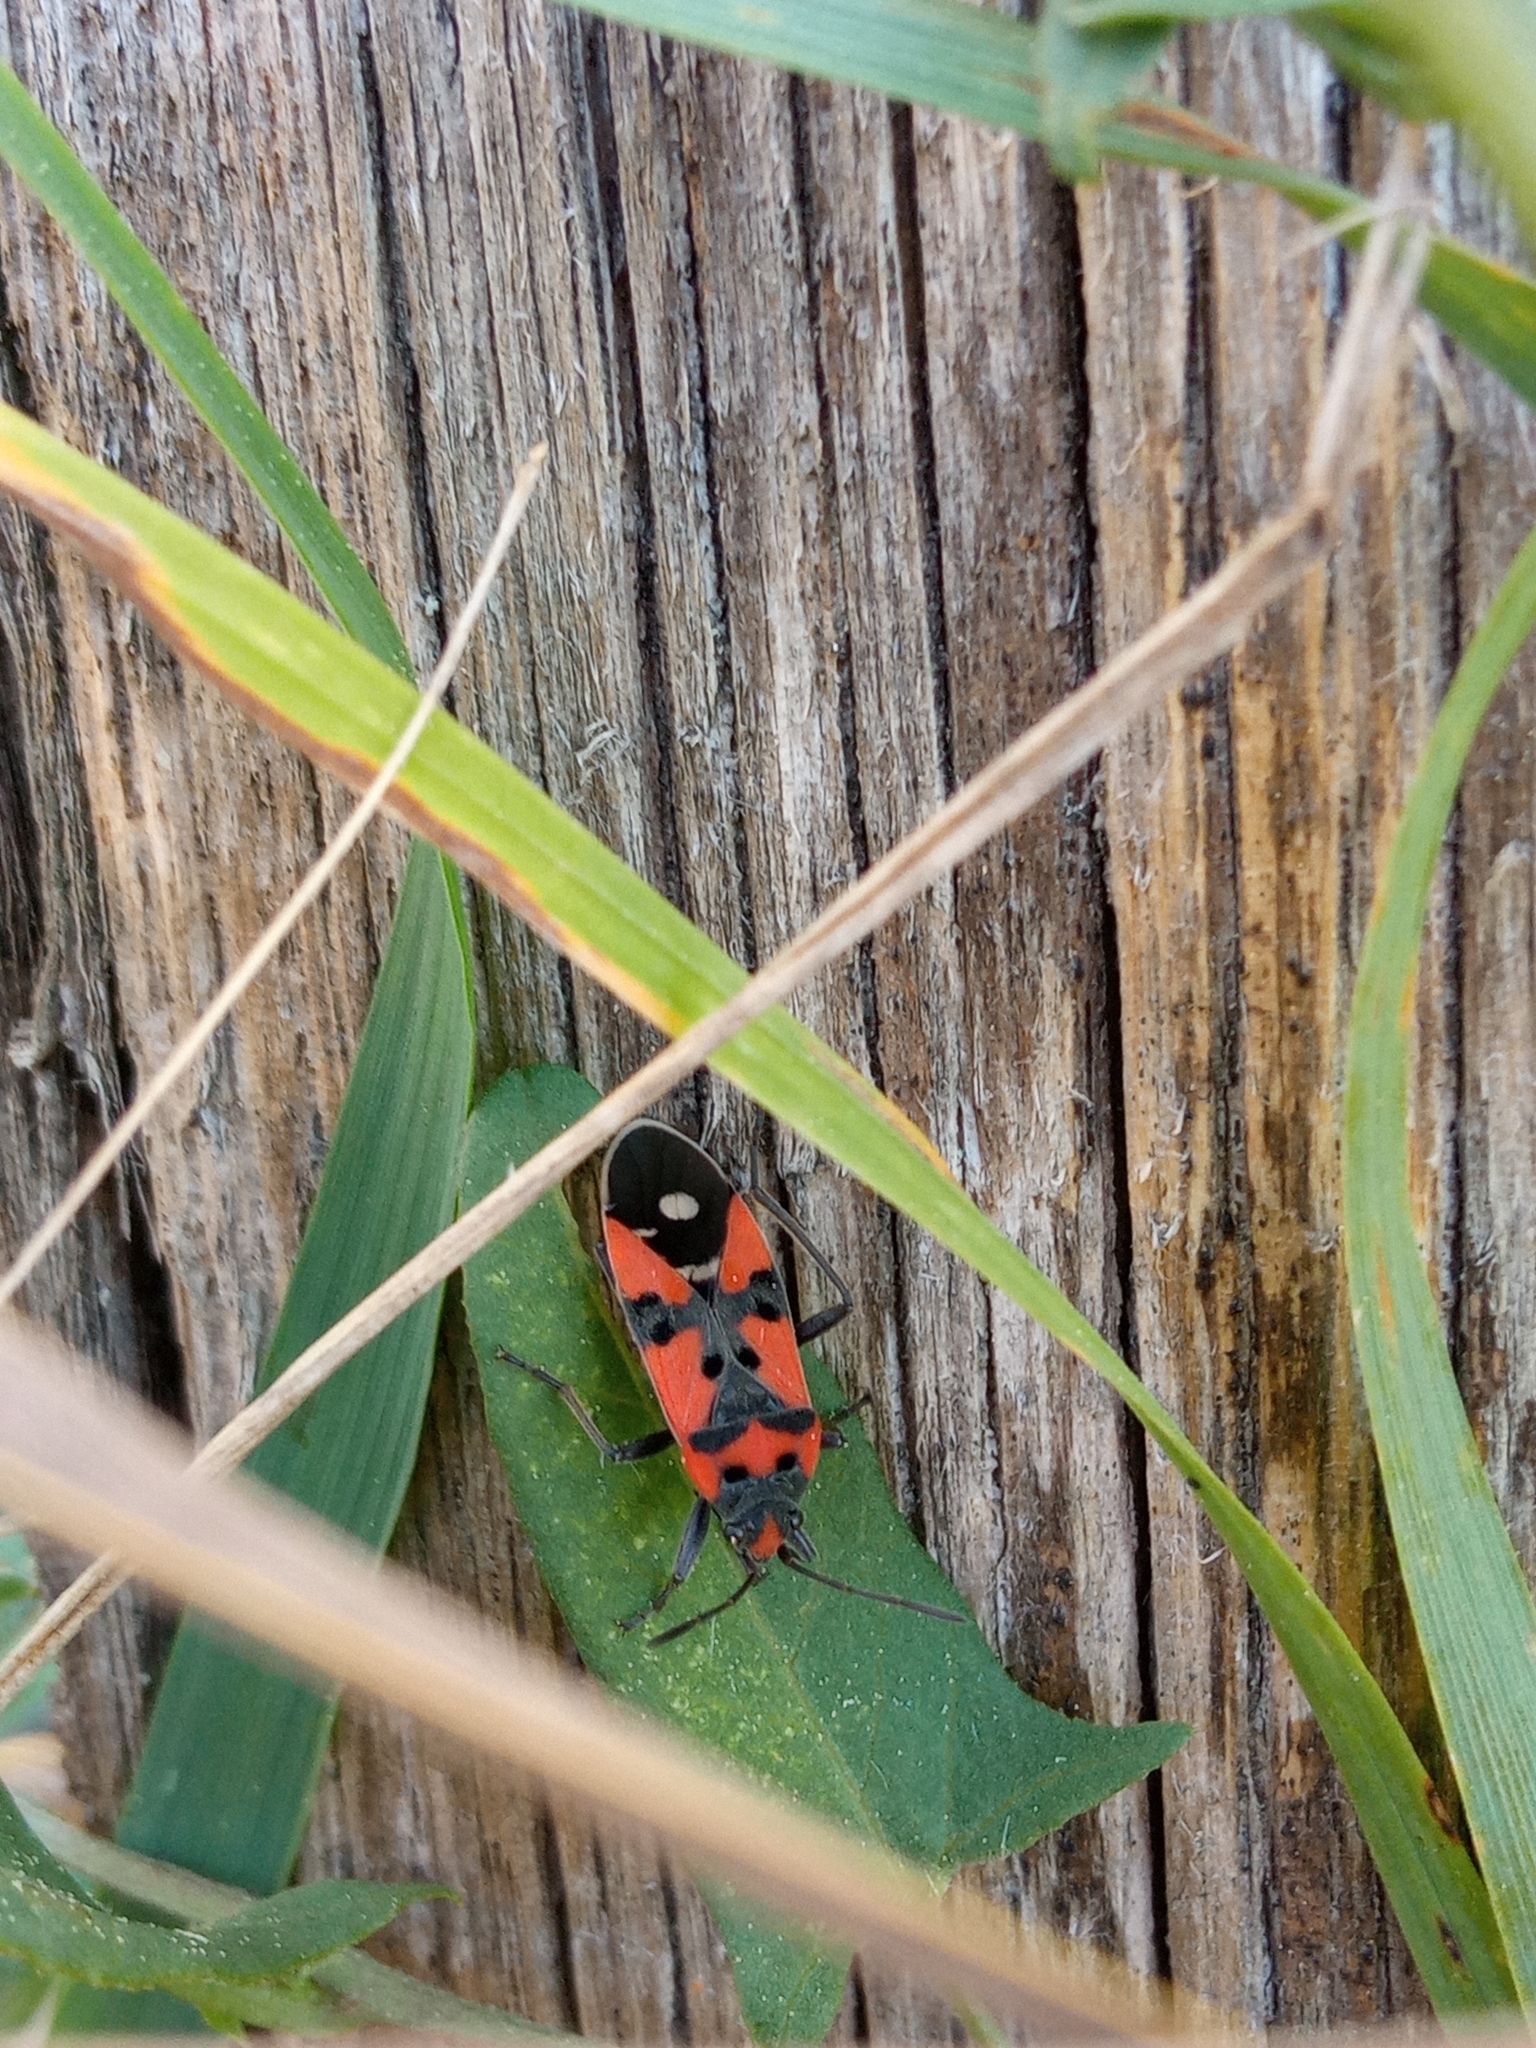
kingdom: Animalia
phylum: Arthropoda
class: Insecta
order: Hemiptera
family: Lygaeidae
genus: Lygaeus
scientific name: Lygaeus equestris
